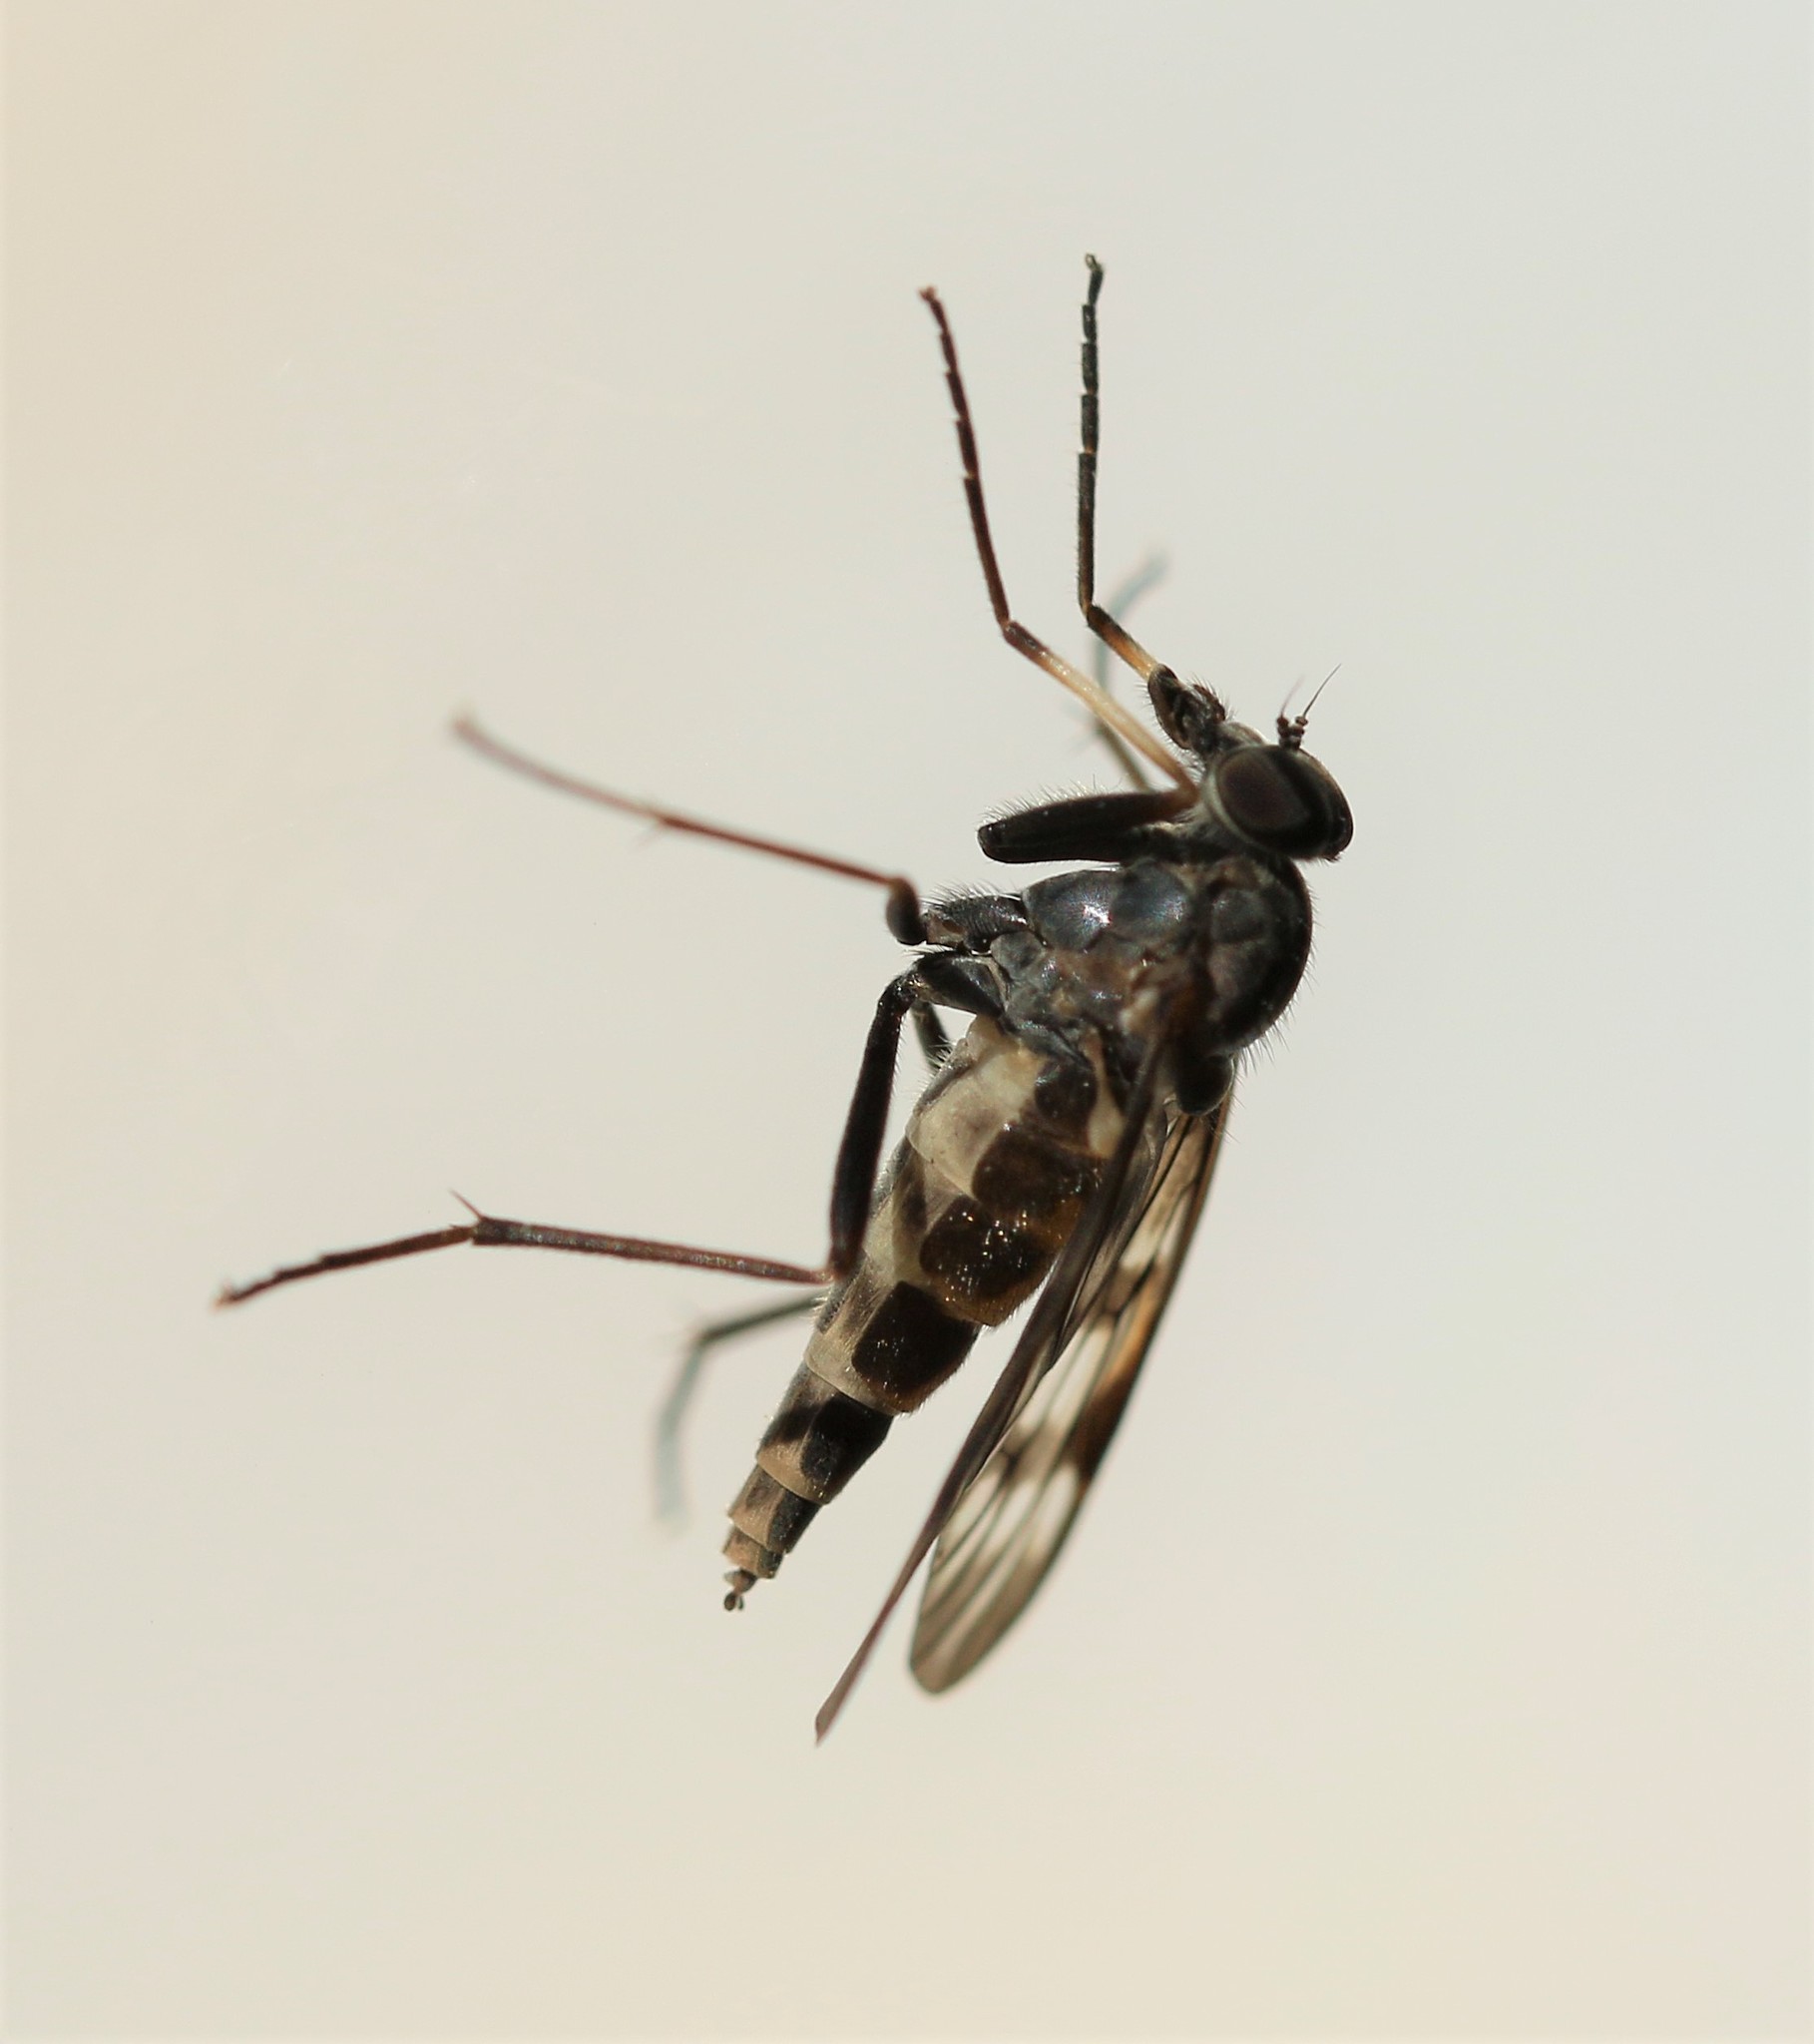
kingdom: Animalia
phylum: Arthropoda
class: Insecta
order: Diptera
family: Rhagionidae
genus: Rhagio
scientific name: Rhagio mystaceus
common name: Common snipe fly
